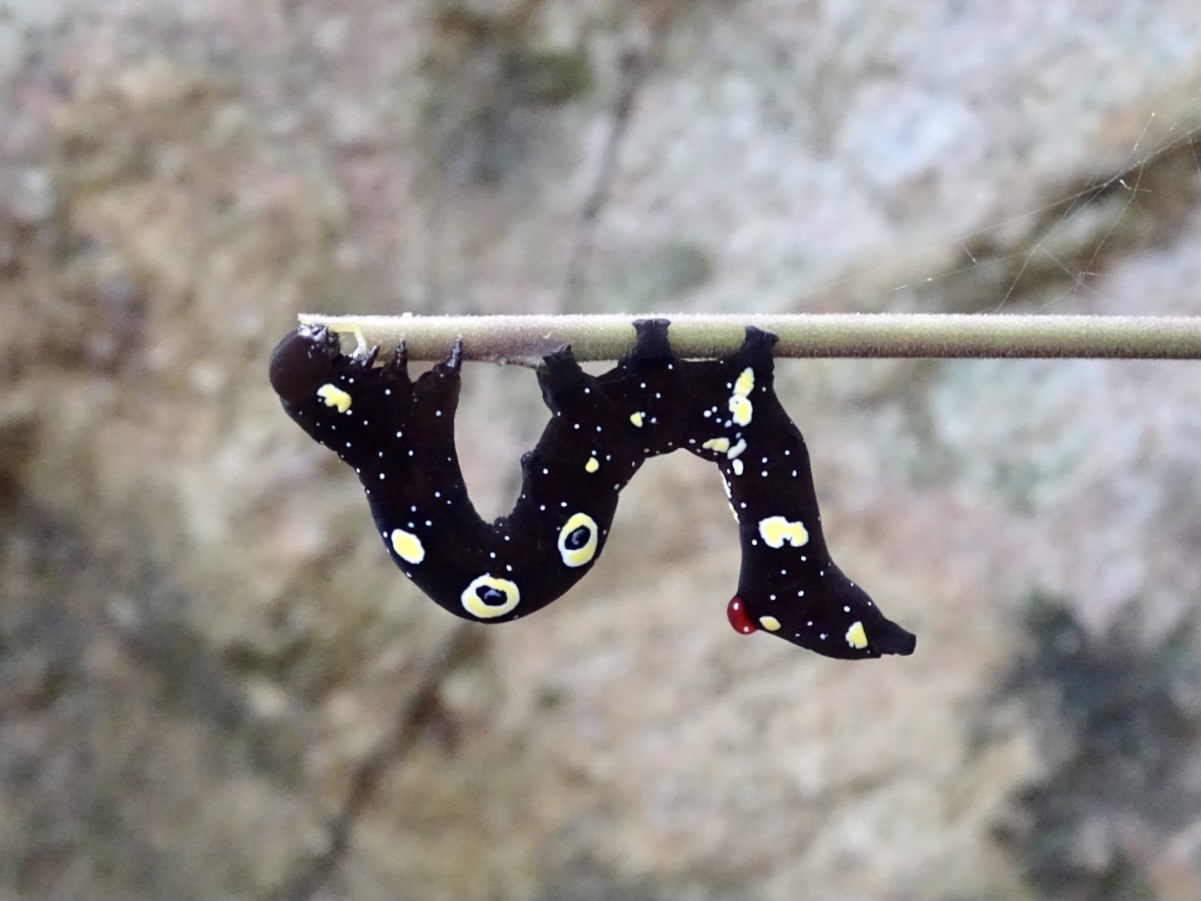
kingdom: Animalia
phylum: Arthropoda
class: Insecta
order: Lepidoptera
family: Erebidae
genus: Eudocima
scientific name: Eudocima homaena
